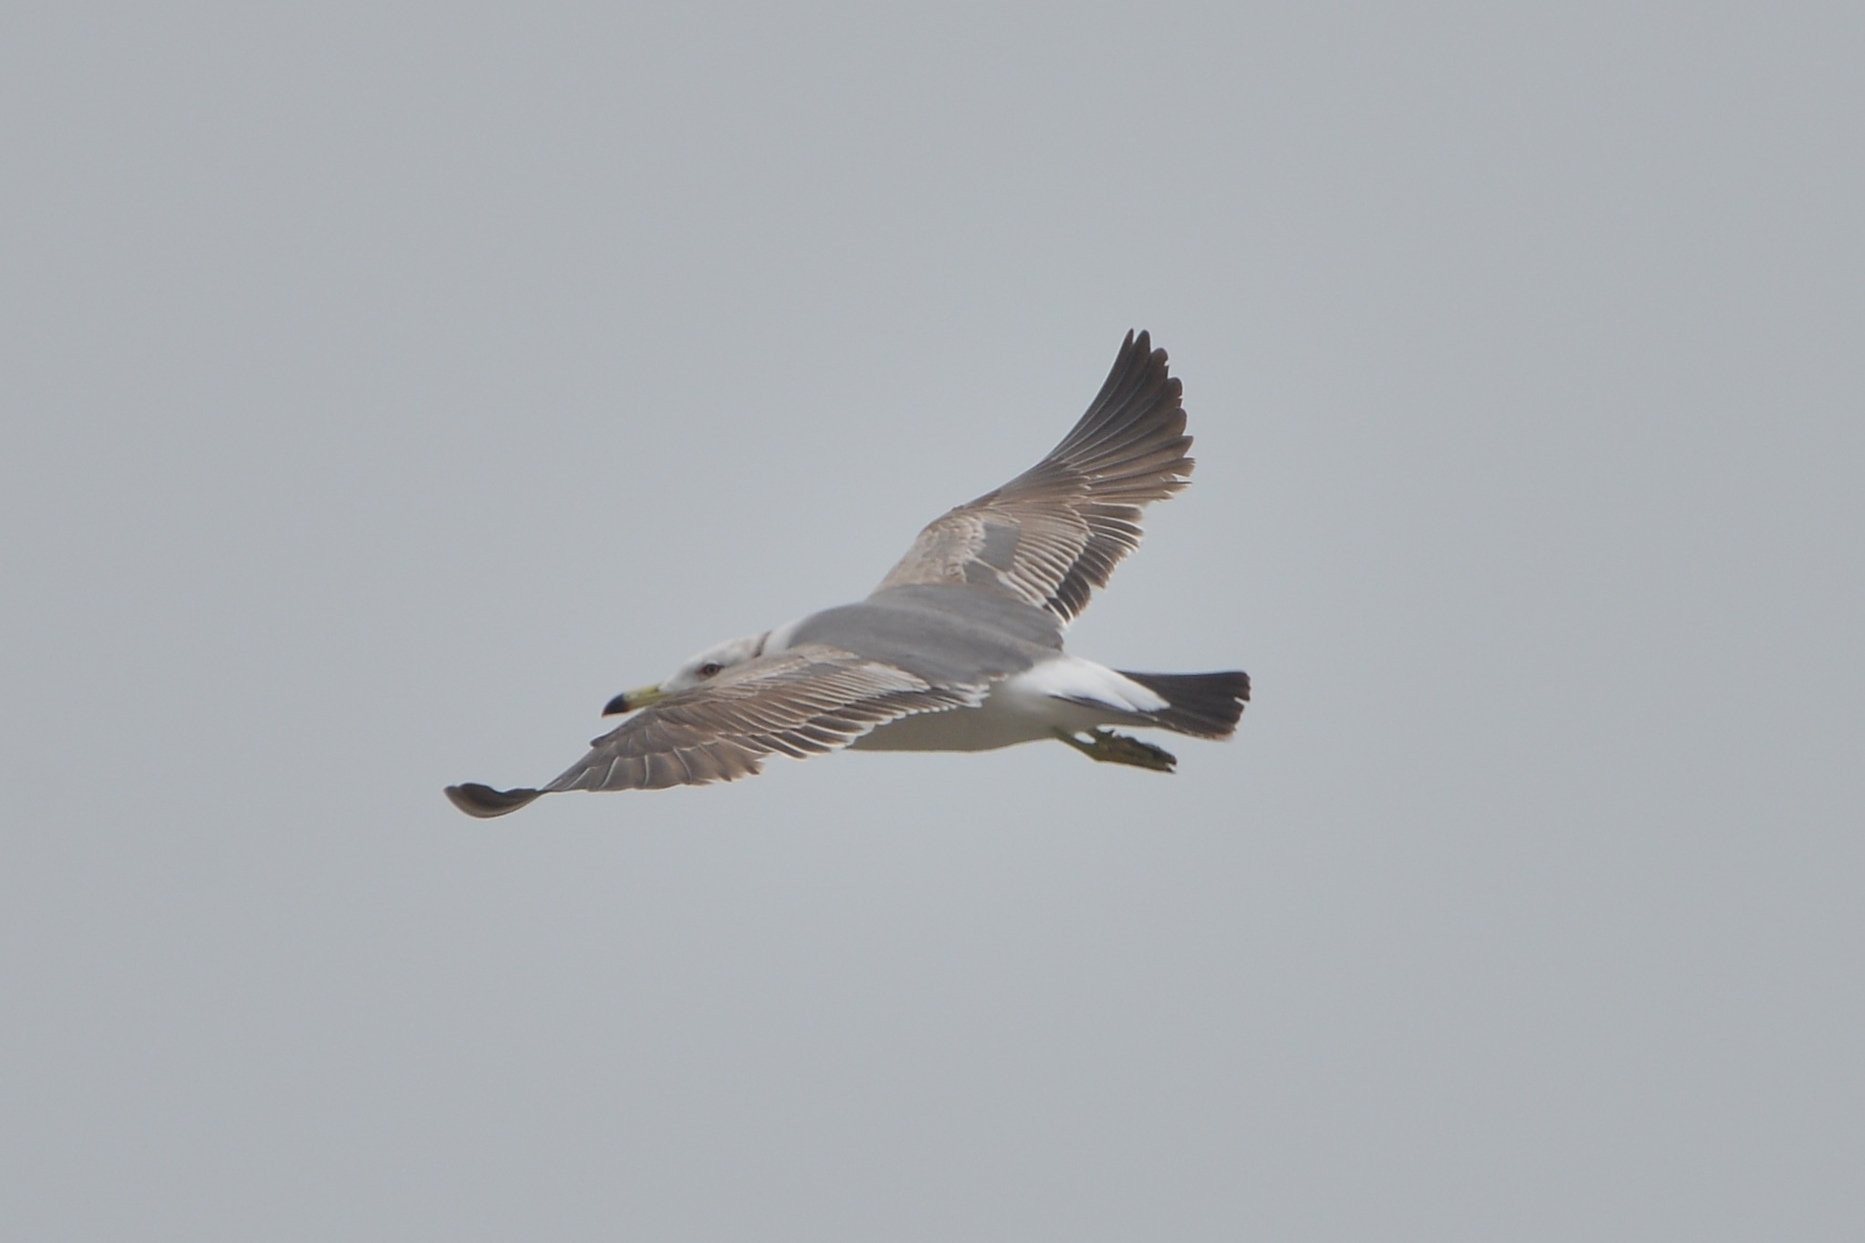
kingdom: Animalia
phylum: Chordata
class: Aves
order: Charadriiformes
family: Laridae
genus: Larus
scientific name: Larus crassirostris
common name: Black-tailed gull
